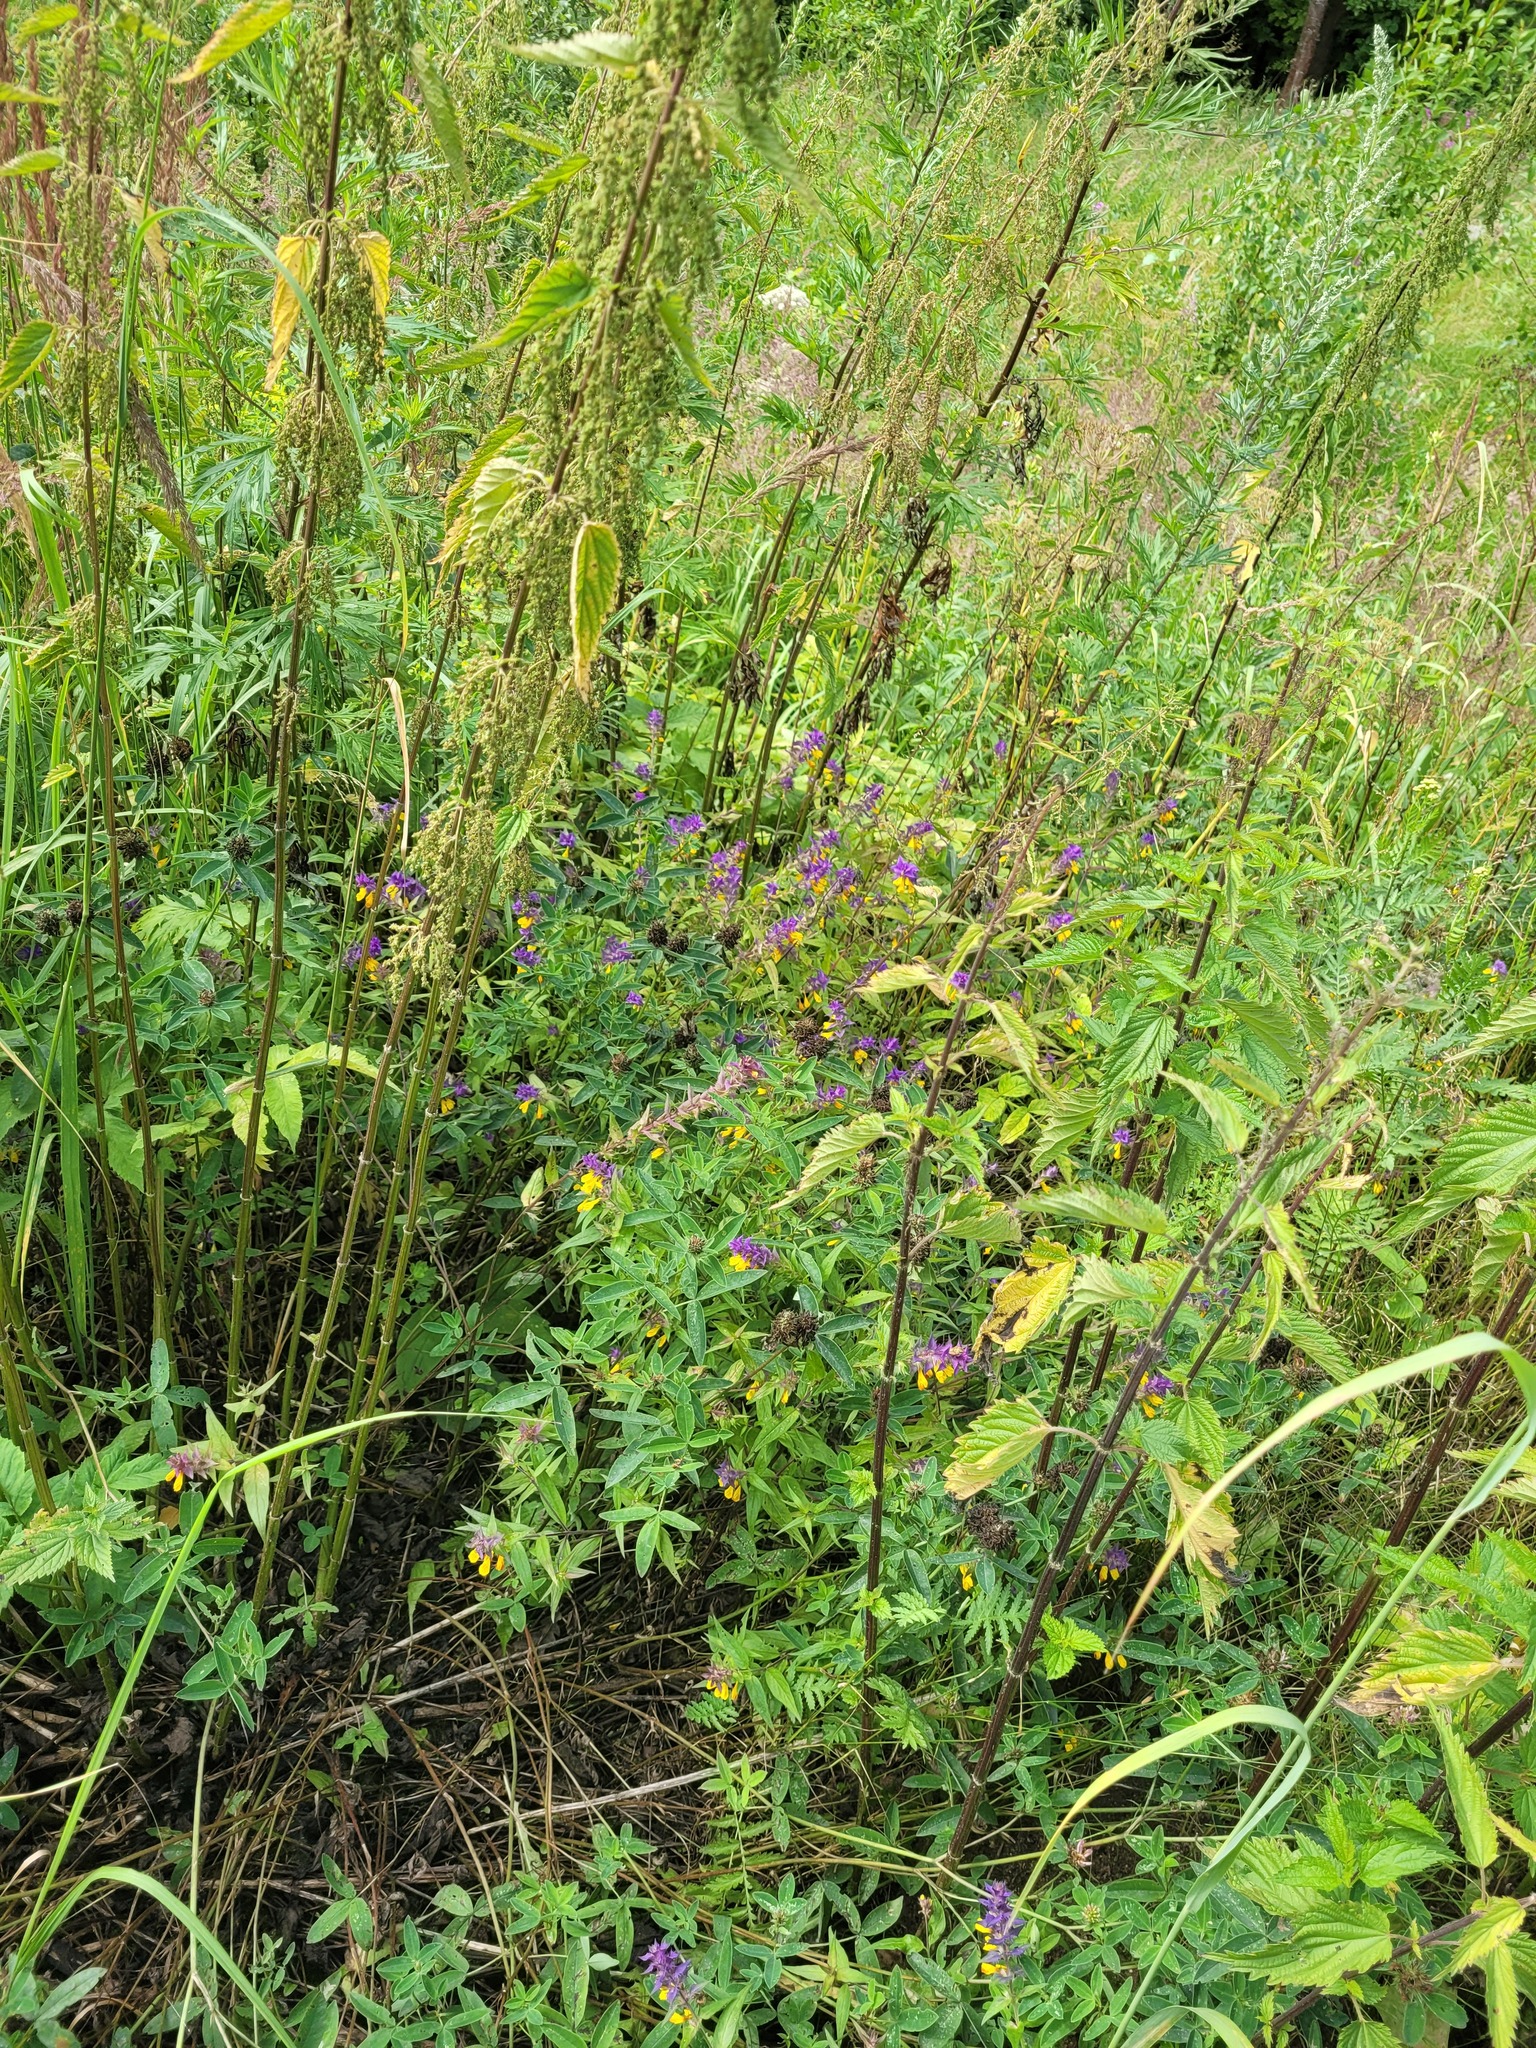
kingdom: Plantae
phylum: Tracheophyta
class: Magnoliopsida
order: Lamiales
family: Orobanchaceae
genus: Melampyrum
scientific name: Melampyrum nemorosum
